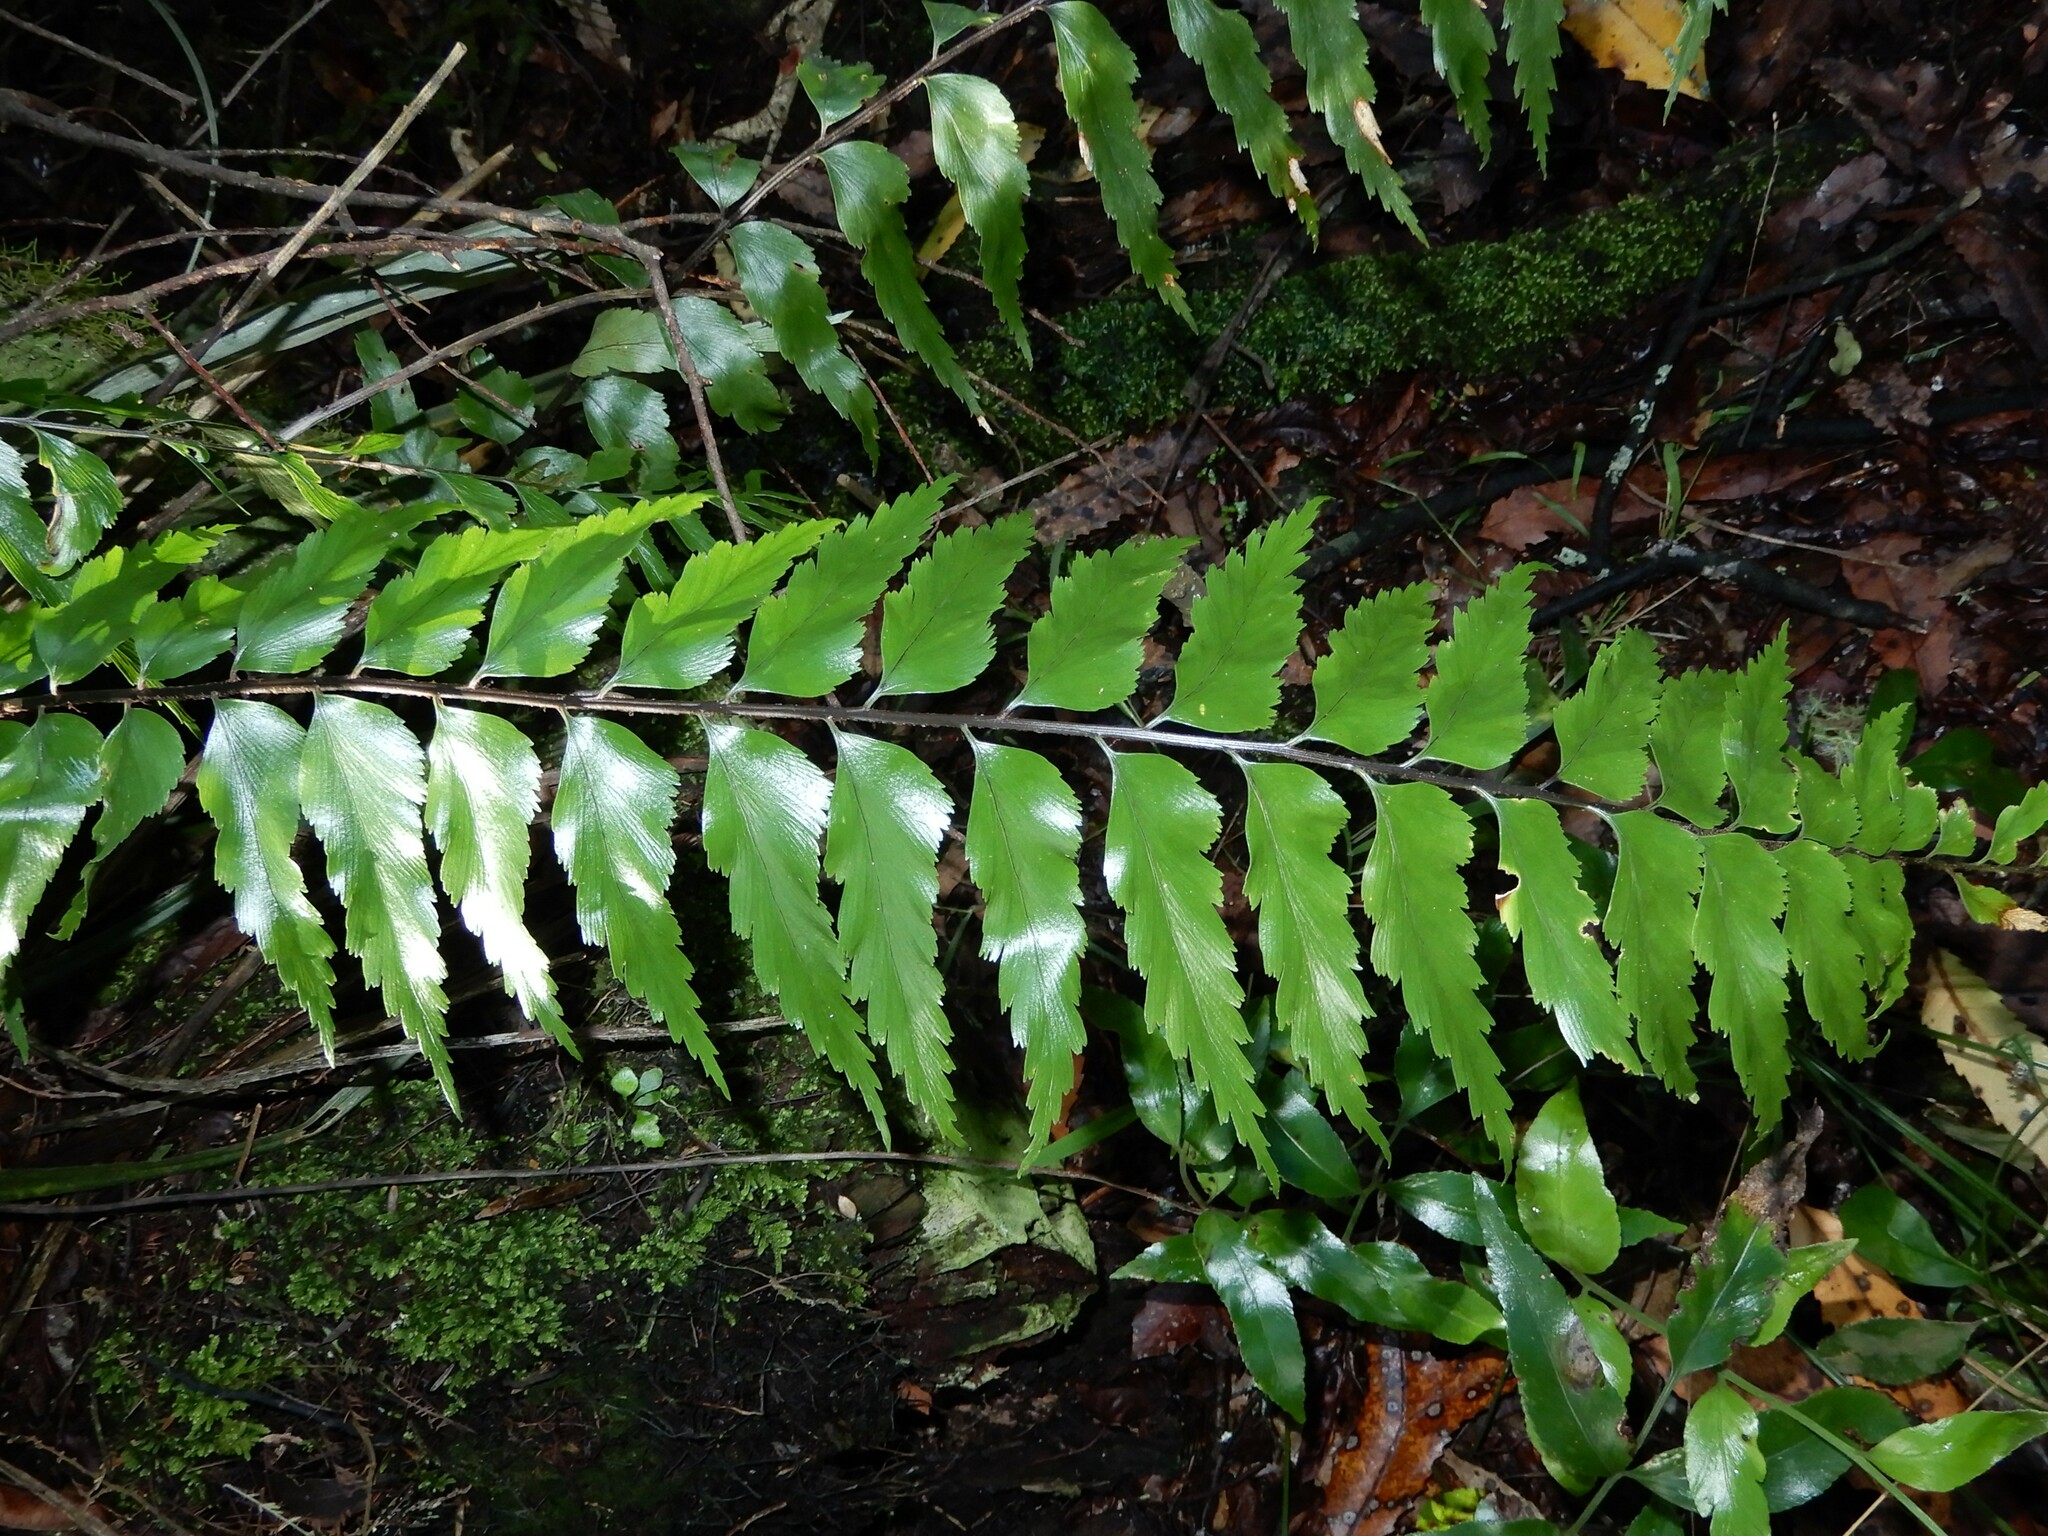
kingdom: Plantae
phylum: Tracheophyta
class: Polypodiopsida
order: Polypodiales
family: Aspleniaceae
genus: Asplenium
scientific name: Asplenium polyodon
